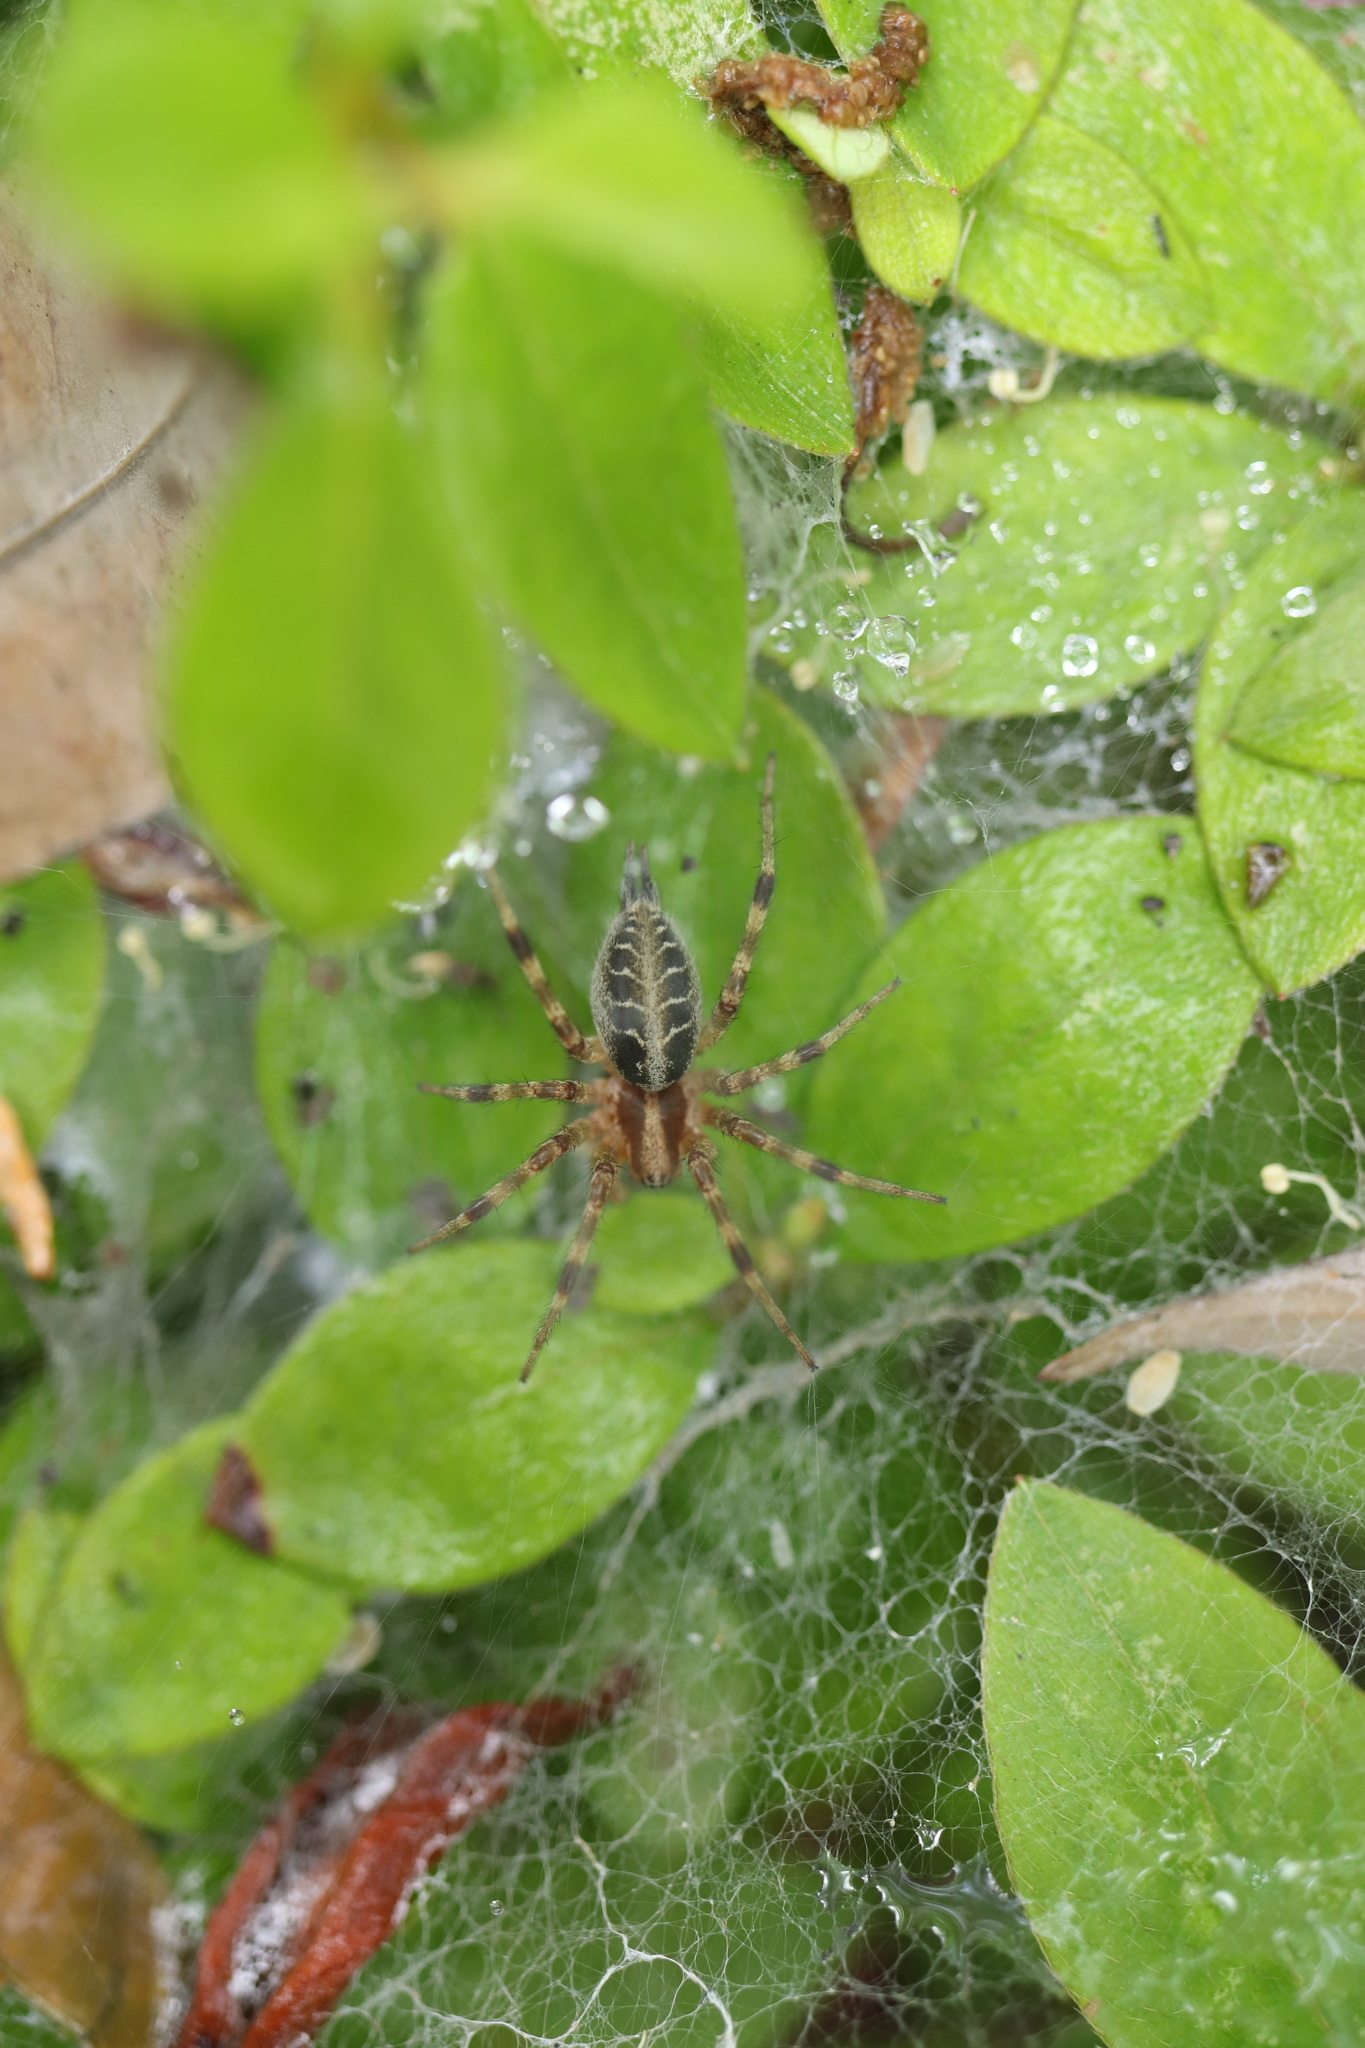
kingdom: Animalia
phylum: Arthropoda
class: Arachnida
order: Araneae
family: Agelenidae
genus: Agelena
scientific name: Agelena silvatica
